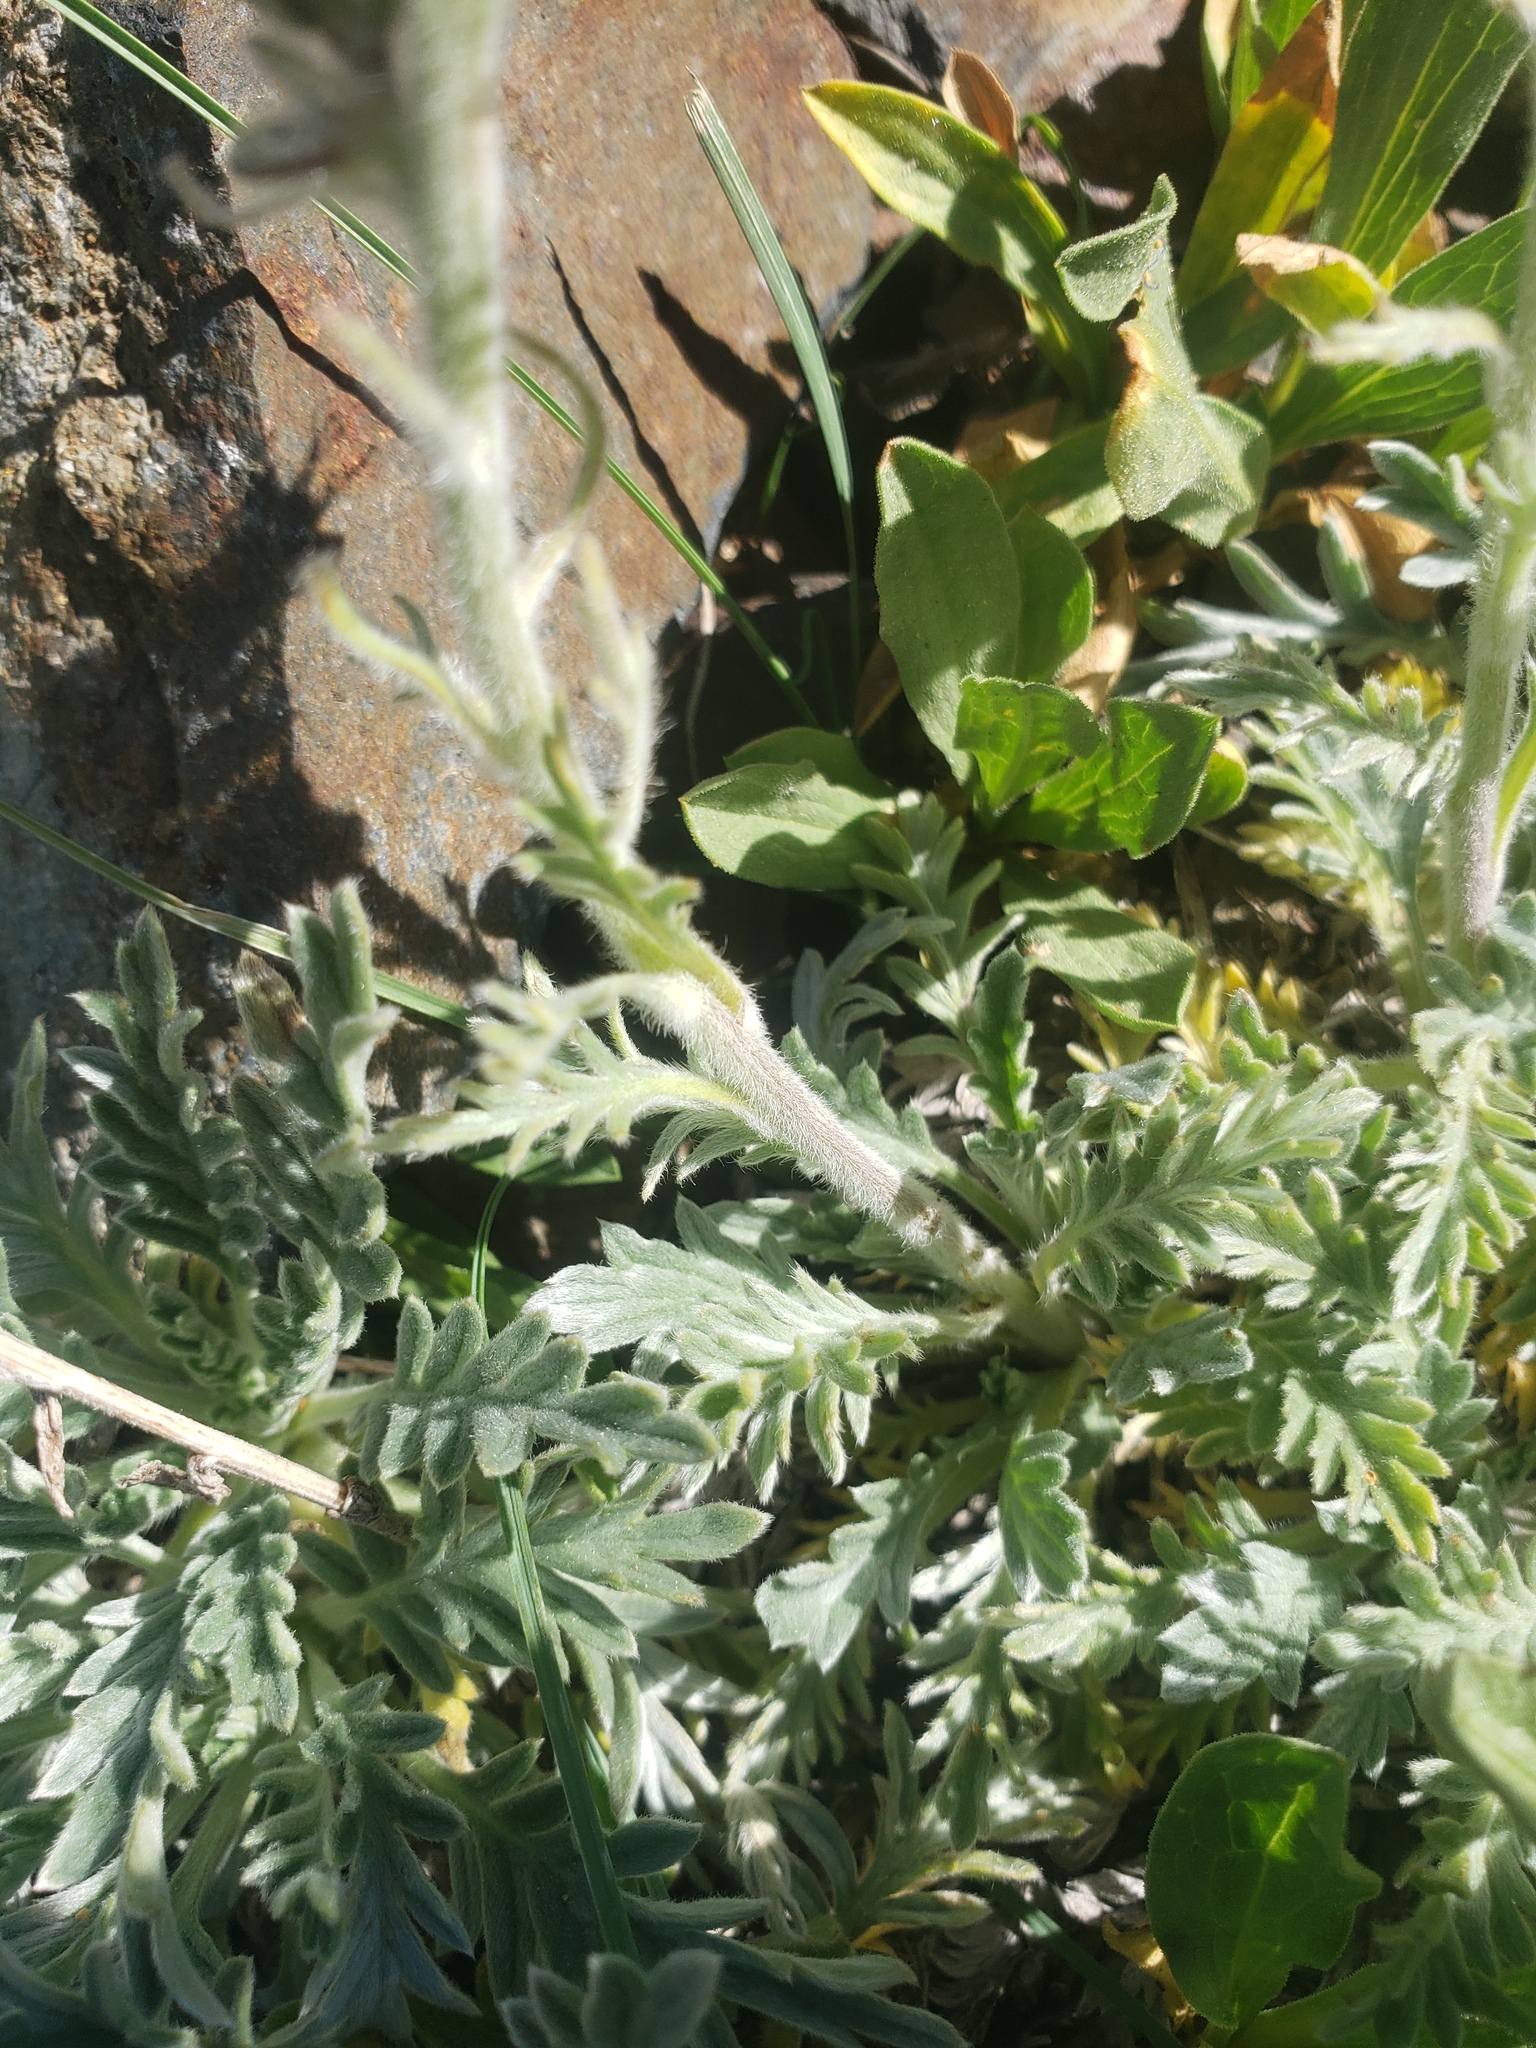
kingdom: Plantae
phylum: Tracheophyta
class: Magnoliopsida
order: Boraginales
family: Hydrophyllaceae
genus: Phacelia
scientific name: Phacelia sericea
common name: Silky phacelia
